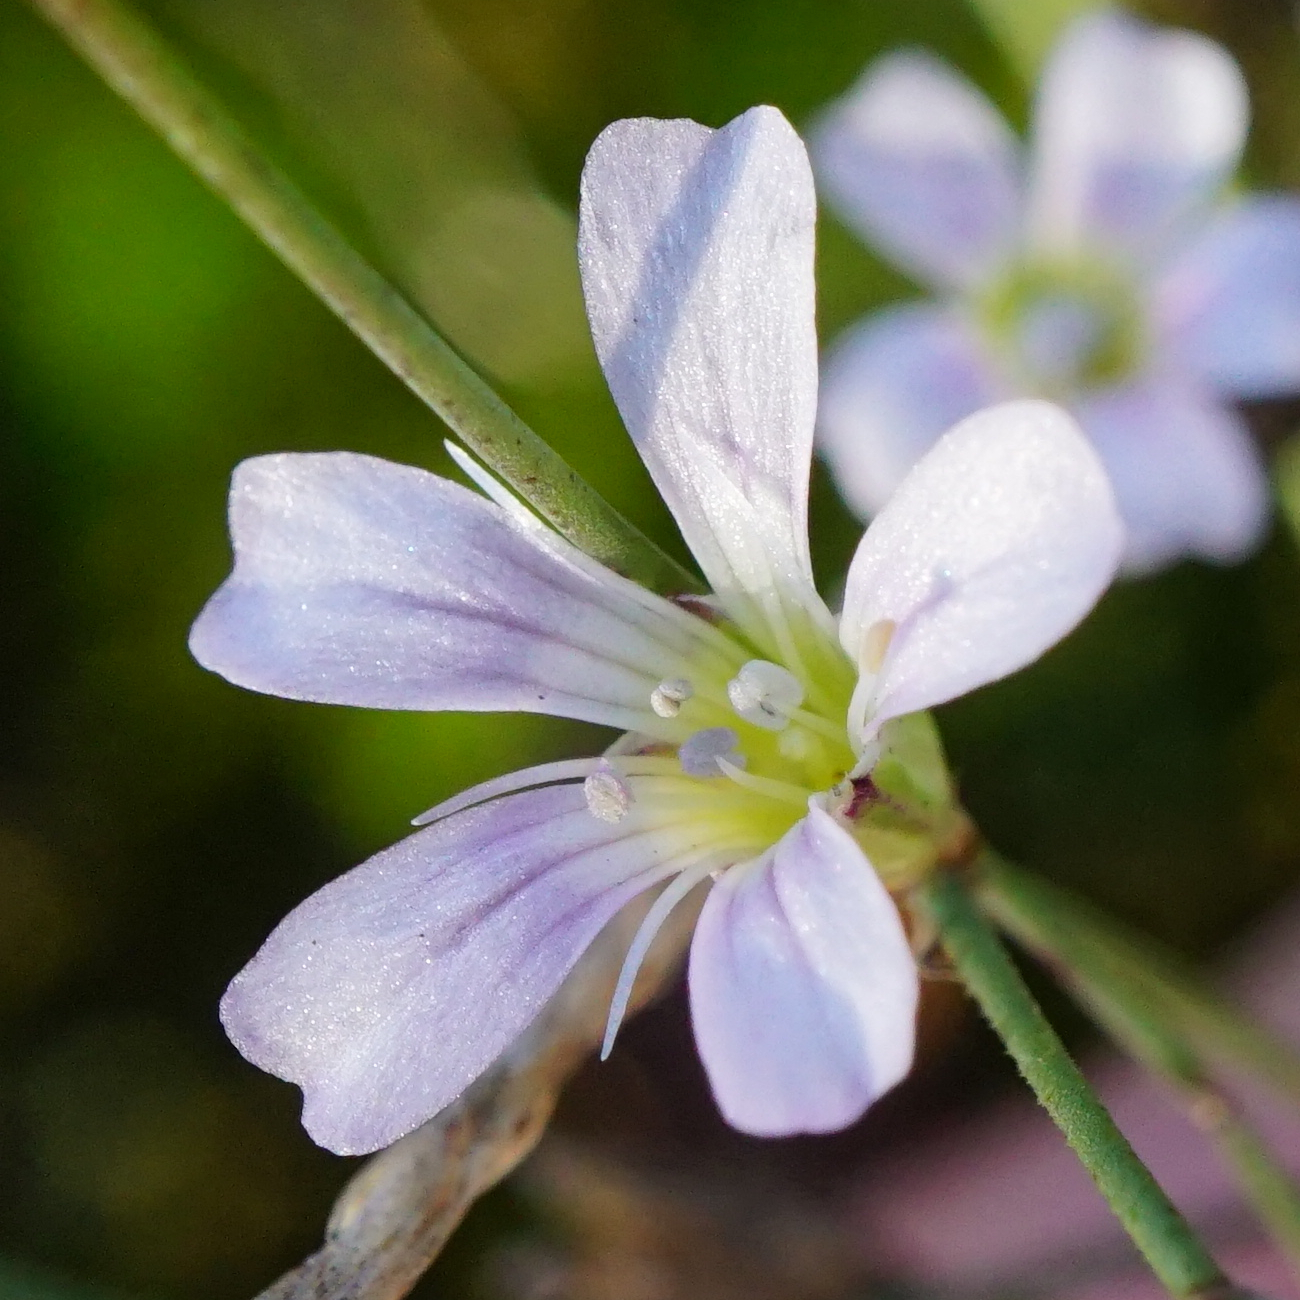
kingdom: Plantae
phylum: Tracheophyta
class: Magnoliopsida
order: Caryophyllales
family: Caryophyllaceae
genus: Petrorhagia
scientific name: Petrorhagia saxifraga
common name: Tunicflower
